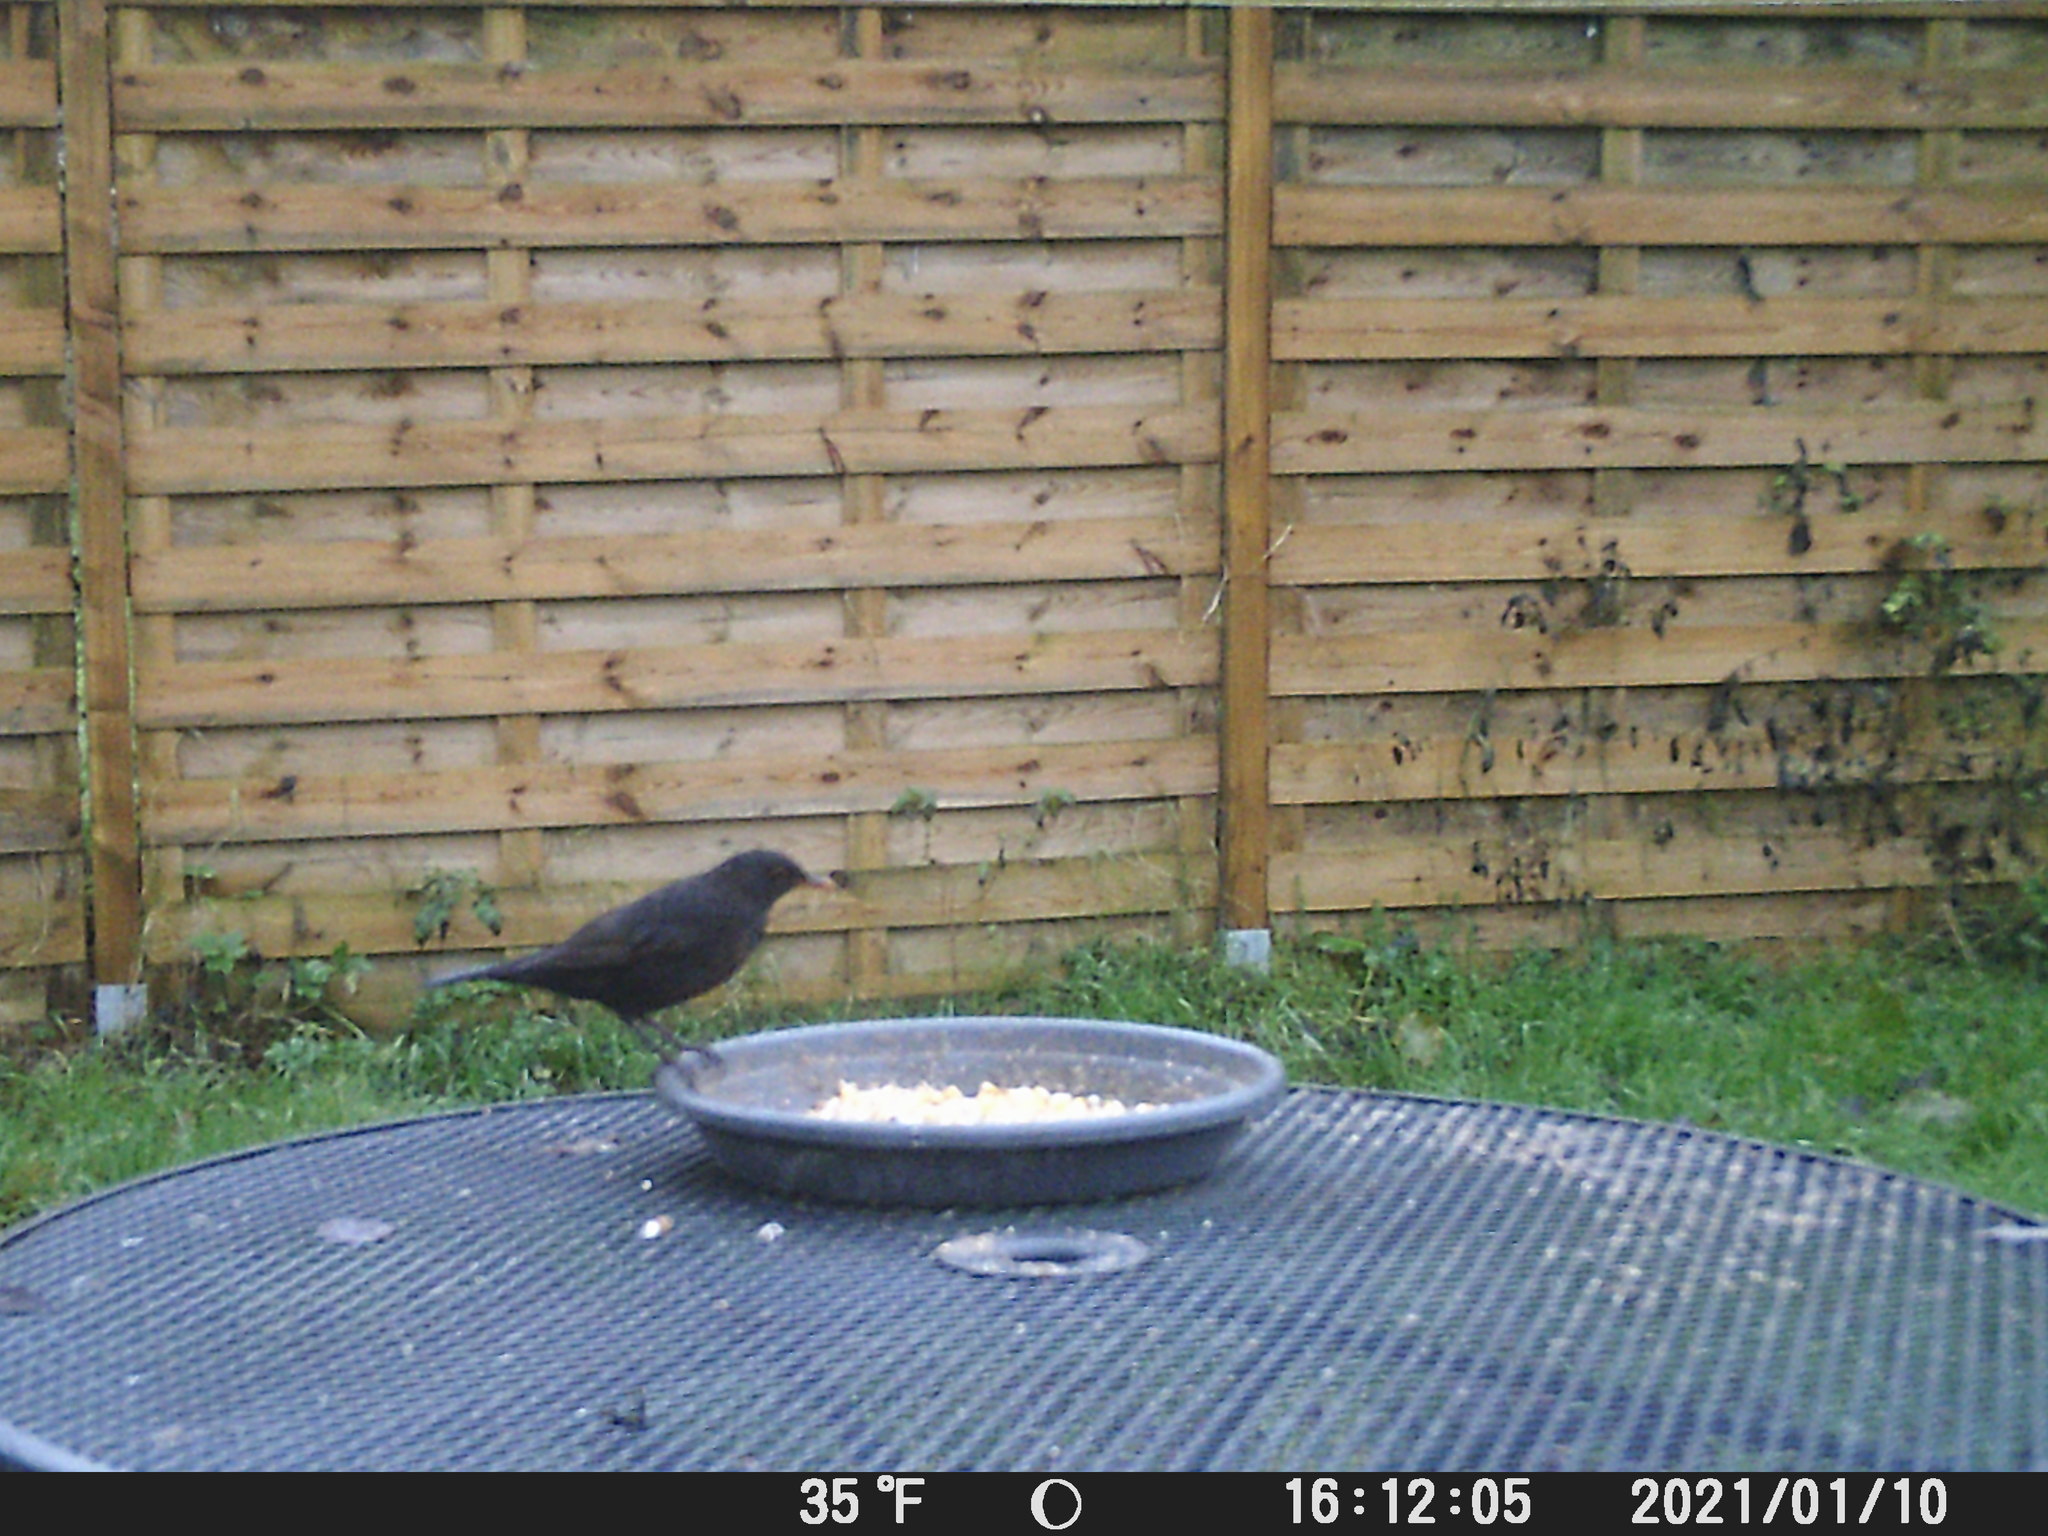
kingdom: Animalia
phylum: Chordata
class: Aves
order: Passeriformes
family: Turdidae
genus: Turdus
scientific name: Turdus merula
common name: Common blackbird
